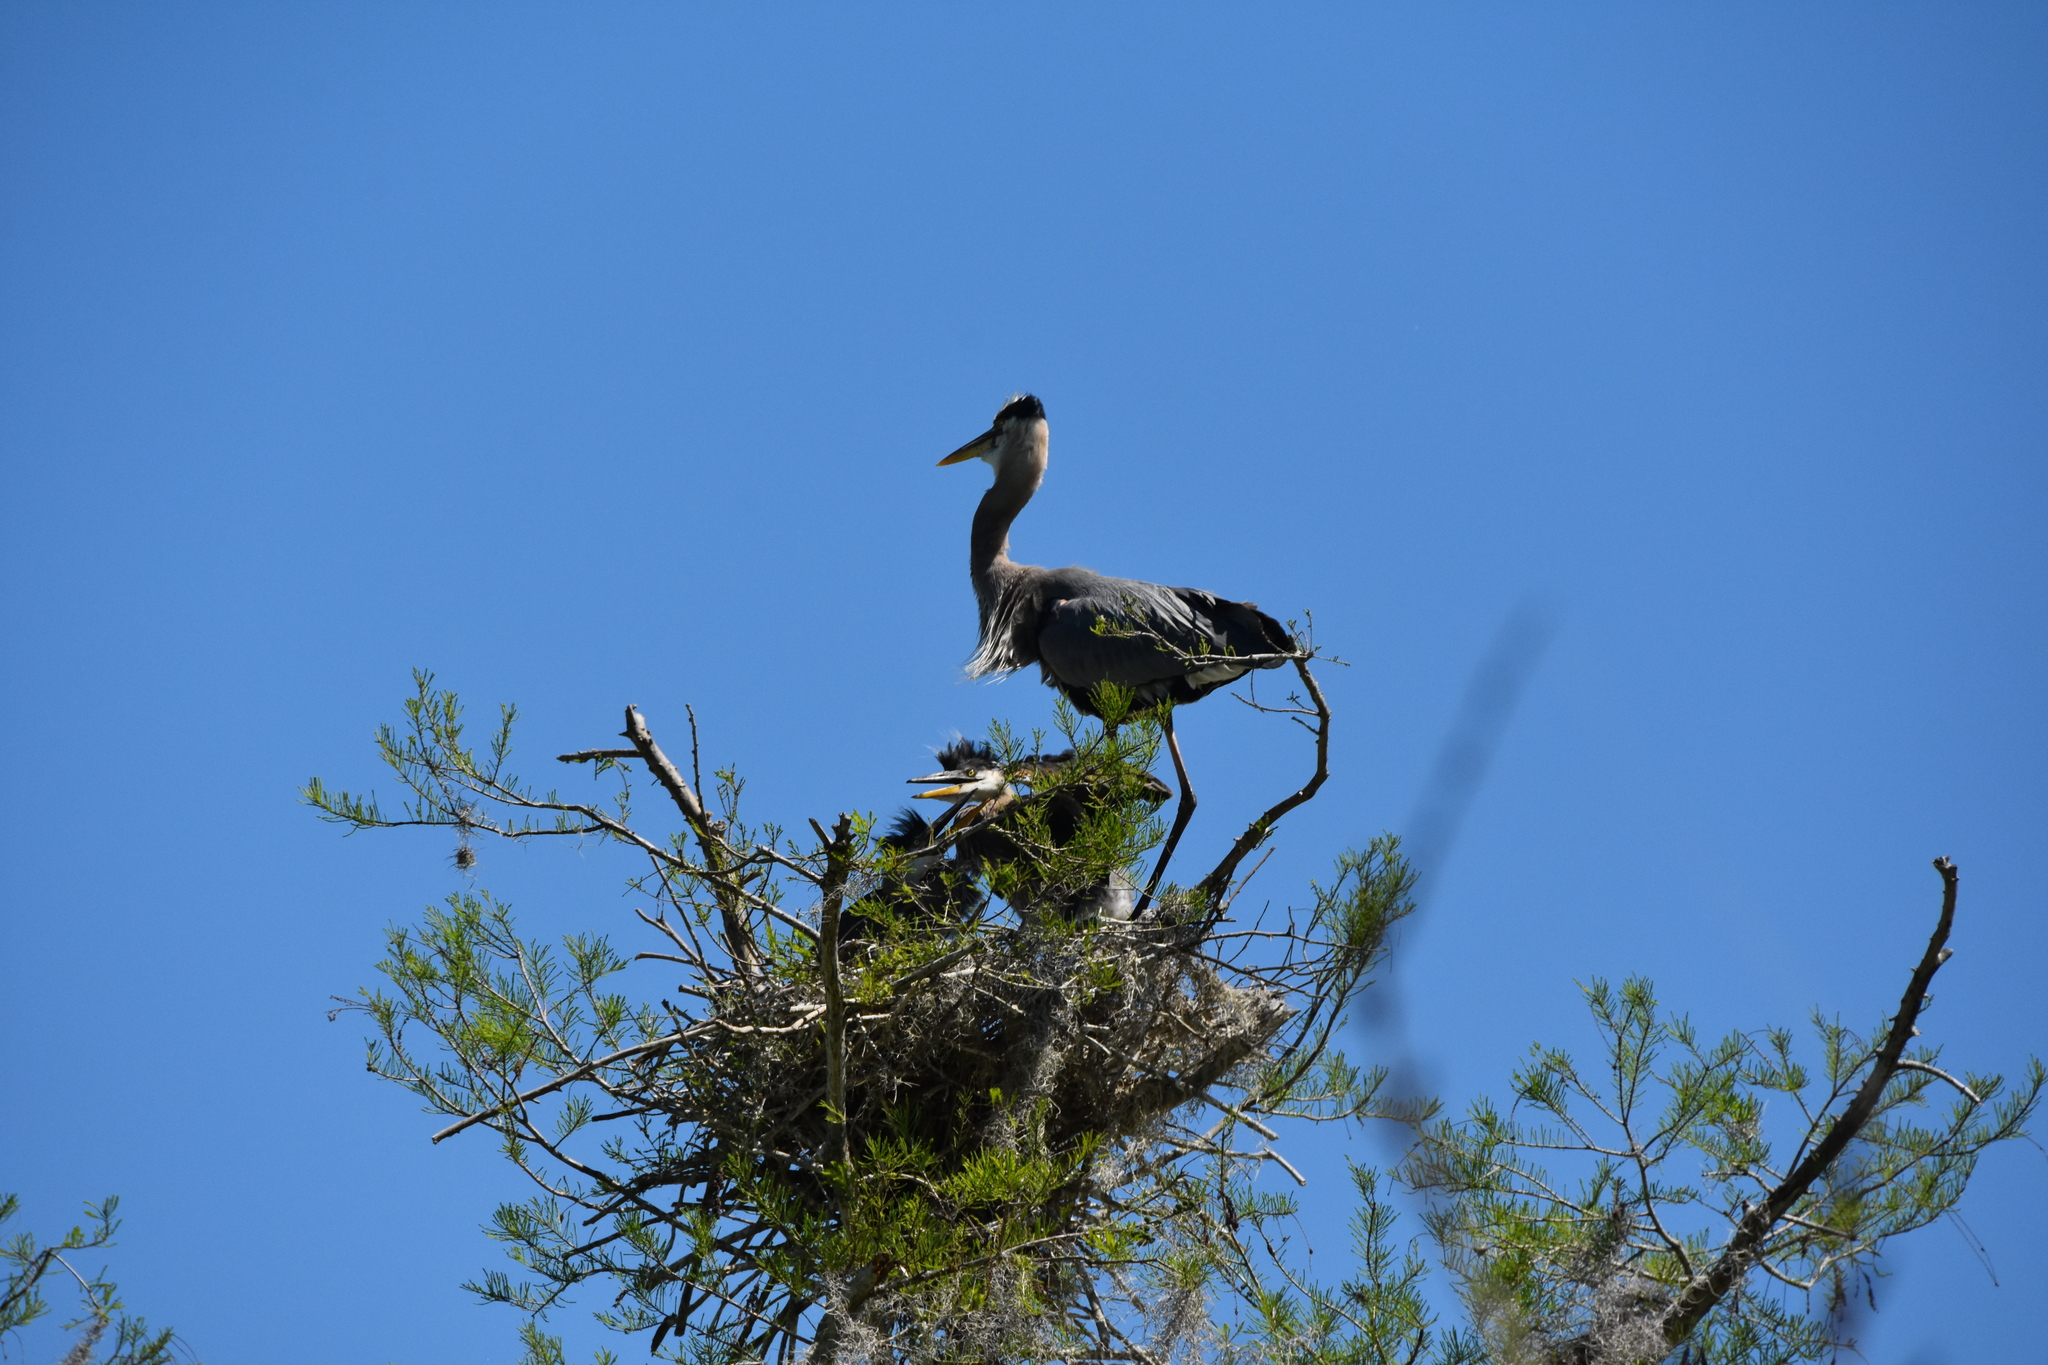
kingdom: Animalia
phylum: Chordata
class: Aves
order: Pelecaniformes
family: Ardeidae
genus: Ardea
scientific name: Ardea herodias
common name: Great blue heron
